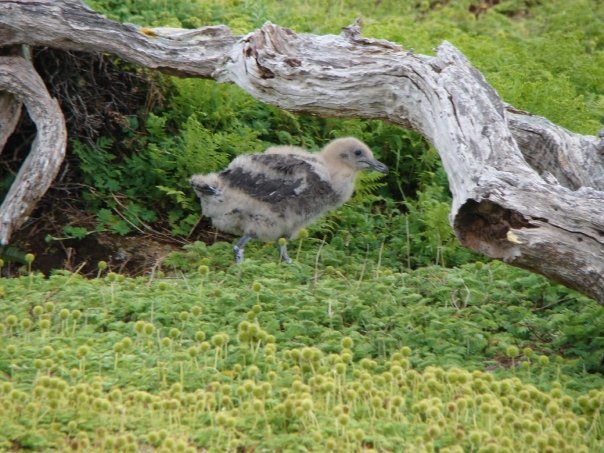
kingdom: Animalia
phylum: Chordata
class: Aves
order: Charadriiformes
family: Stercorariidae
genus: Stercorarius
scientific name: Stercorarius antarcticus
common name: Brown skua
